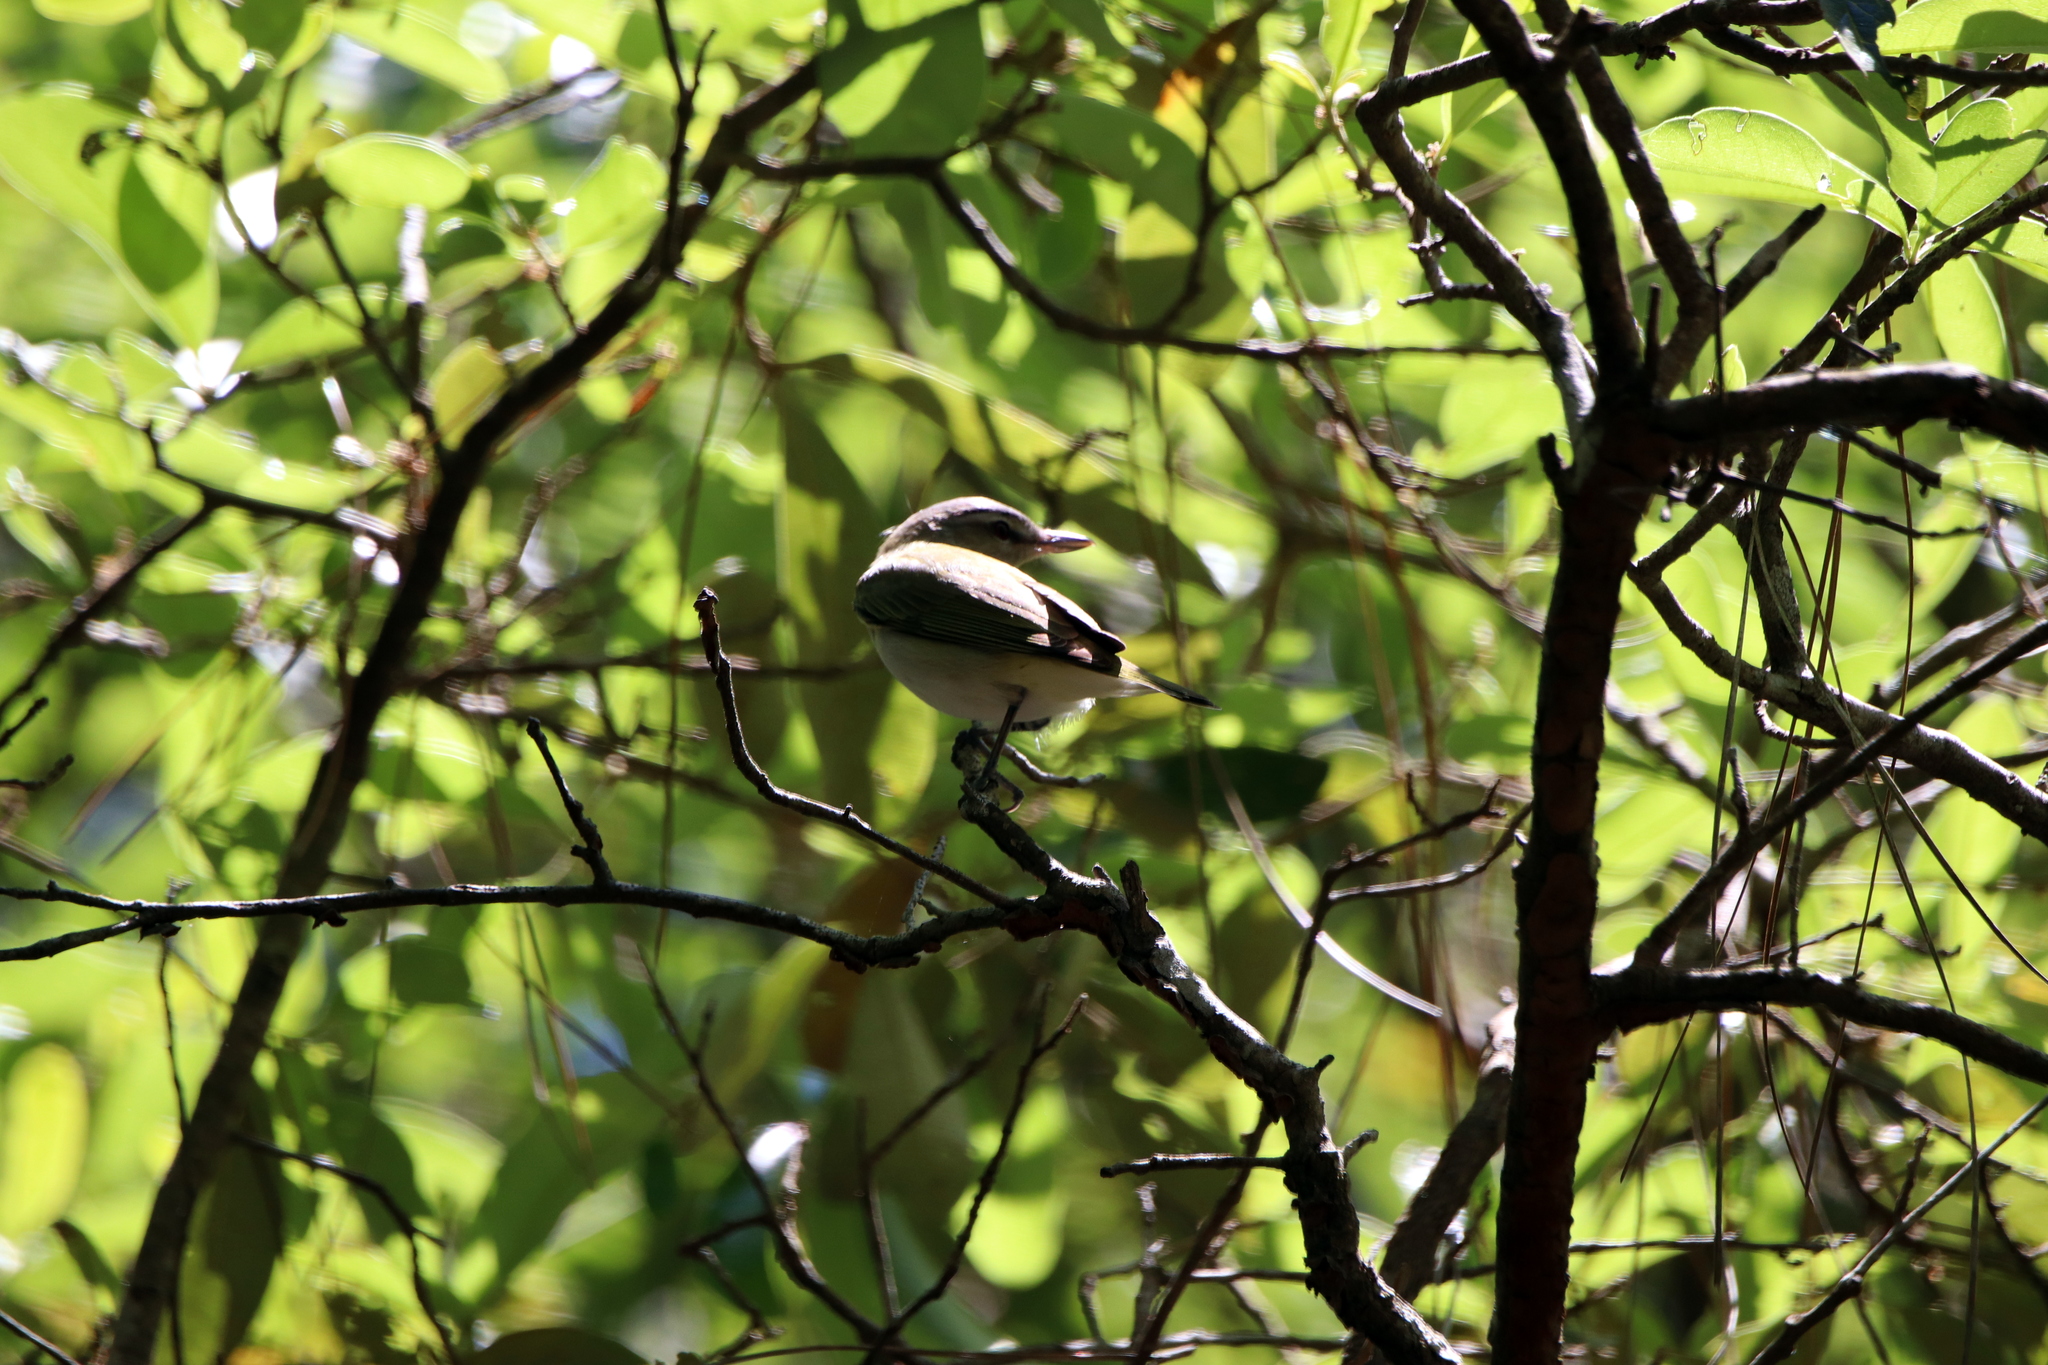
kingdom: Animalia
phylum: Chordata
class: Aves
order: Passeriformes
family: Vireonidae
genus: Vireo
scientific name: Vireo olivaceus
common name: Red-eyed vireo
